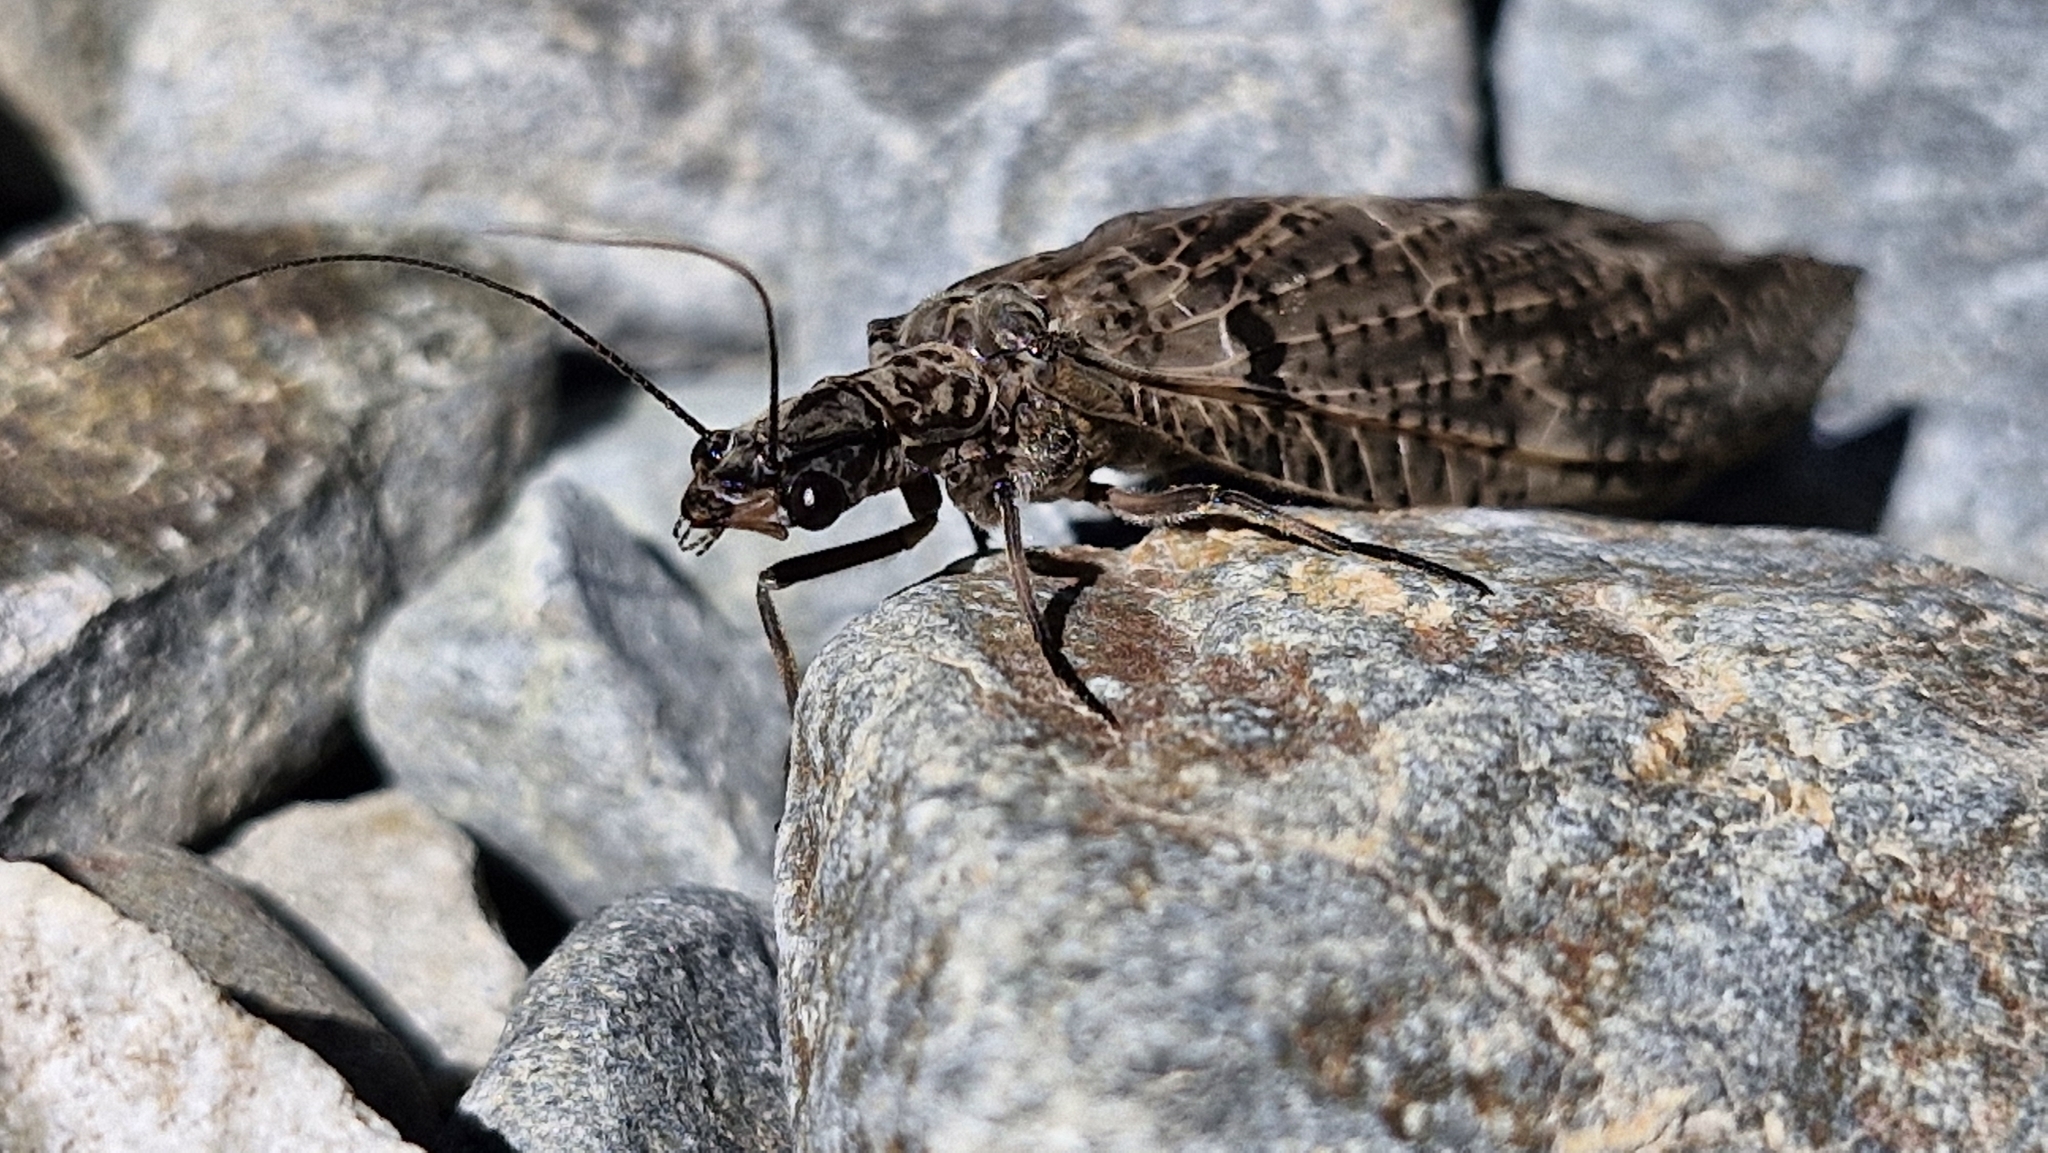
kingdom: Animalia
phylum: Arthropoda
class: Insecta
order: Megaloptera
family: Corydalidae
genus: Archichauliodes
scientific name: Archichauliodes diversus
